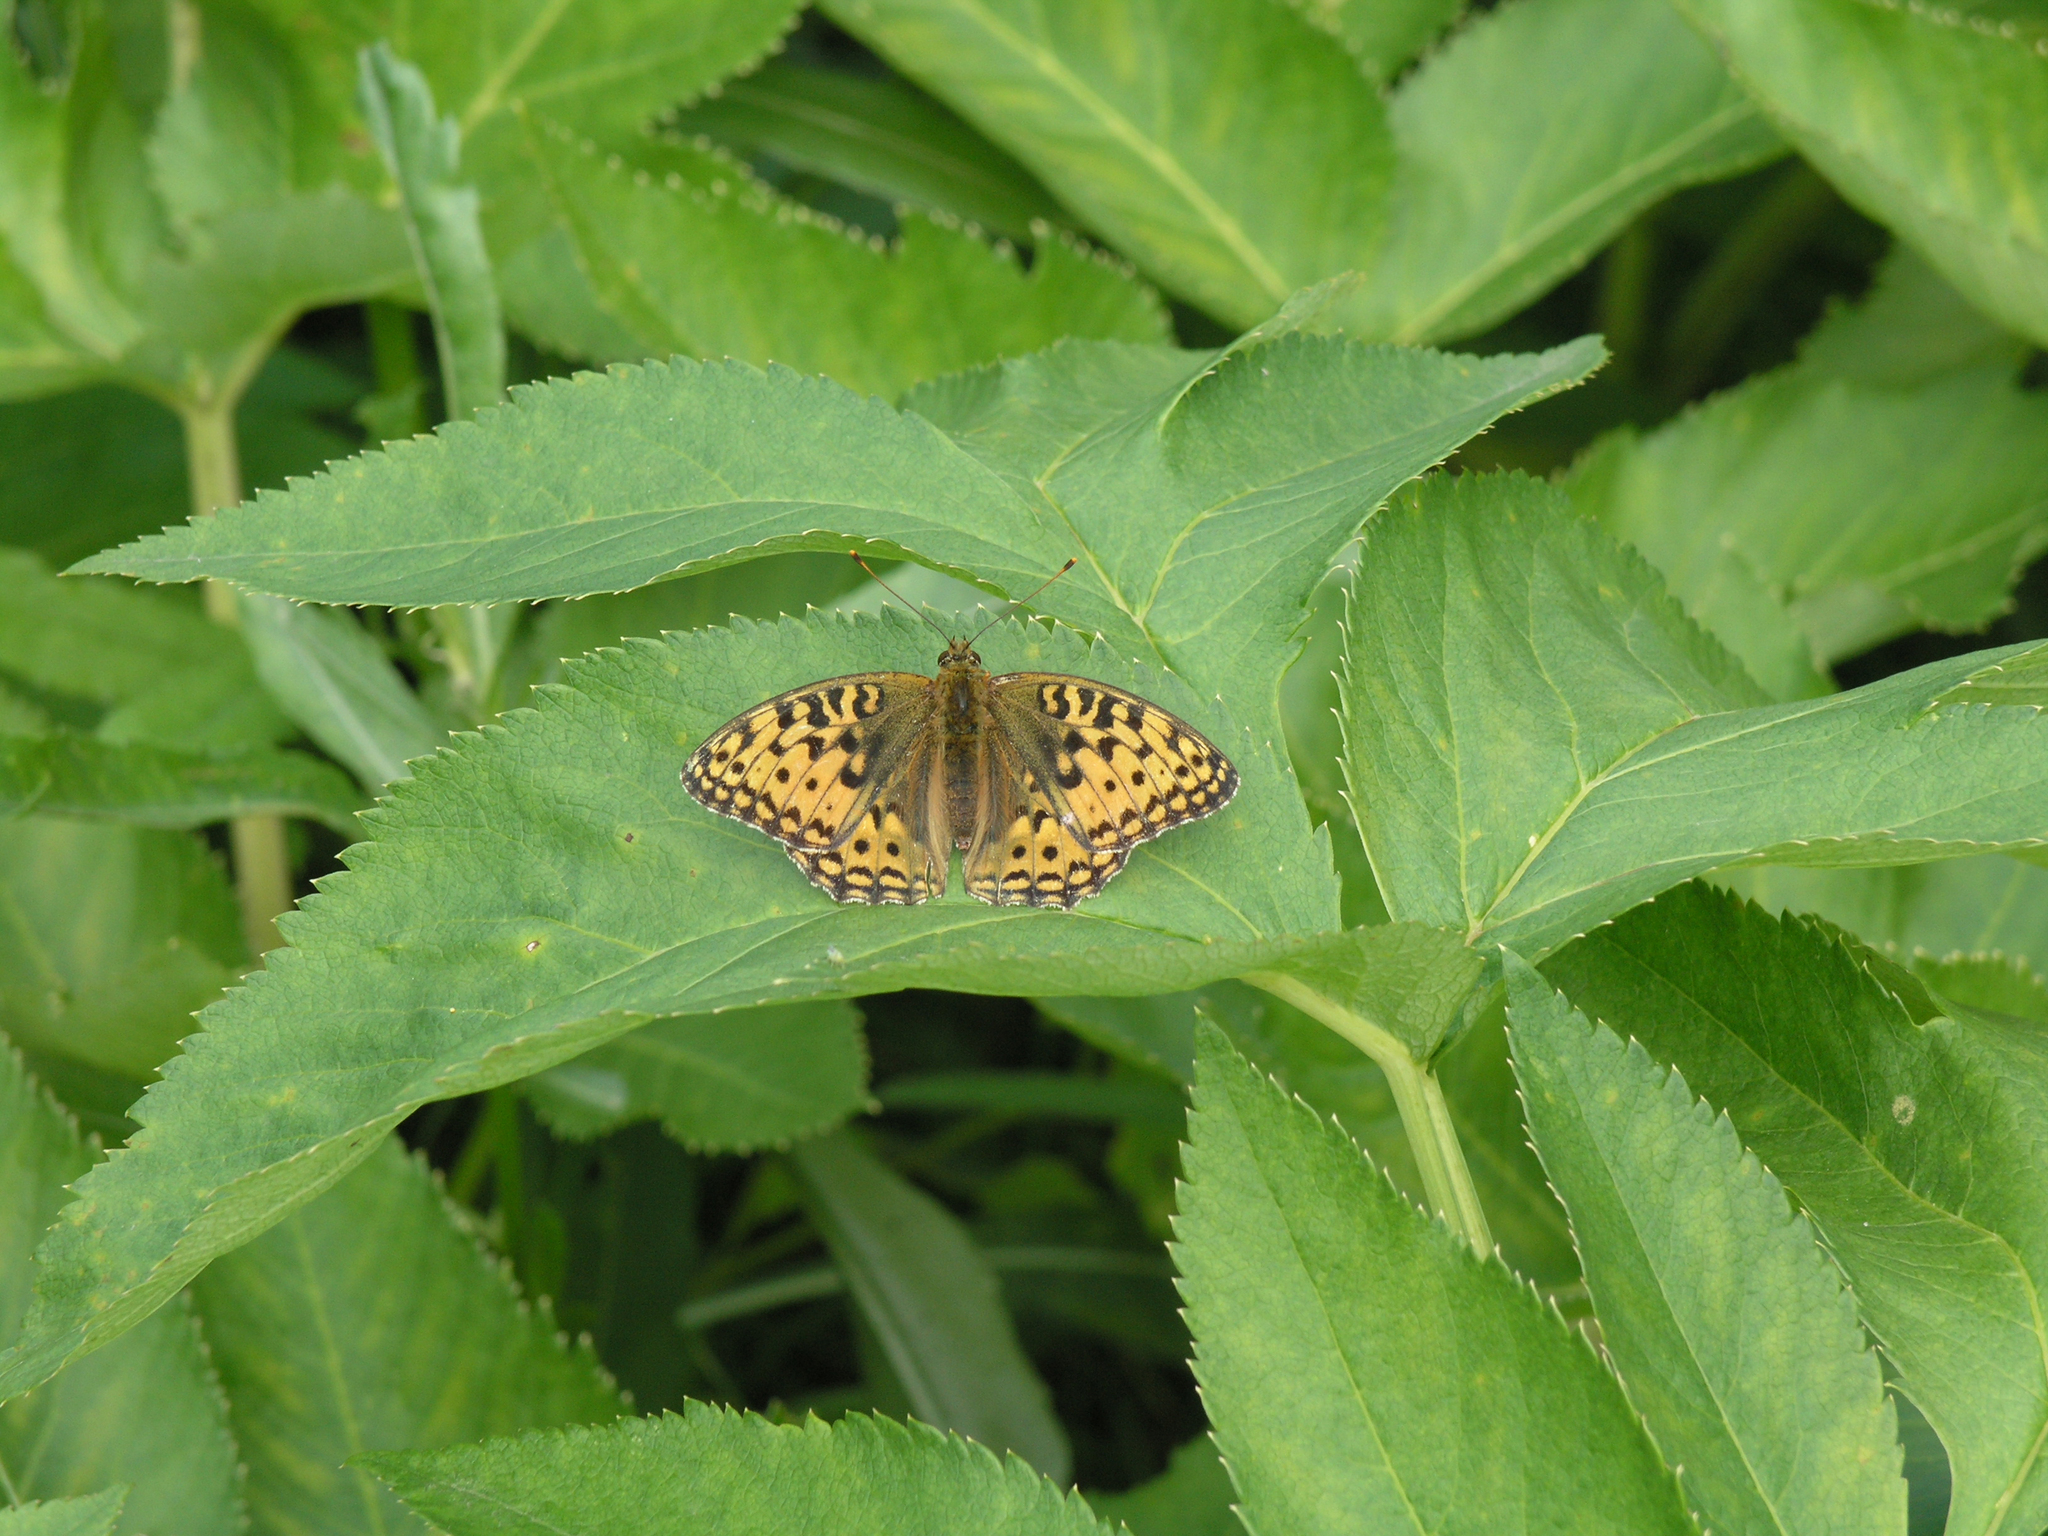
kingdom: Plantae
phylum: Tracheophyta
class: Magnoliopsida
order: Apiales
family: Apiaceae
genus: Angelica
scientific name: Angelica decurrens
